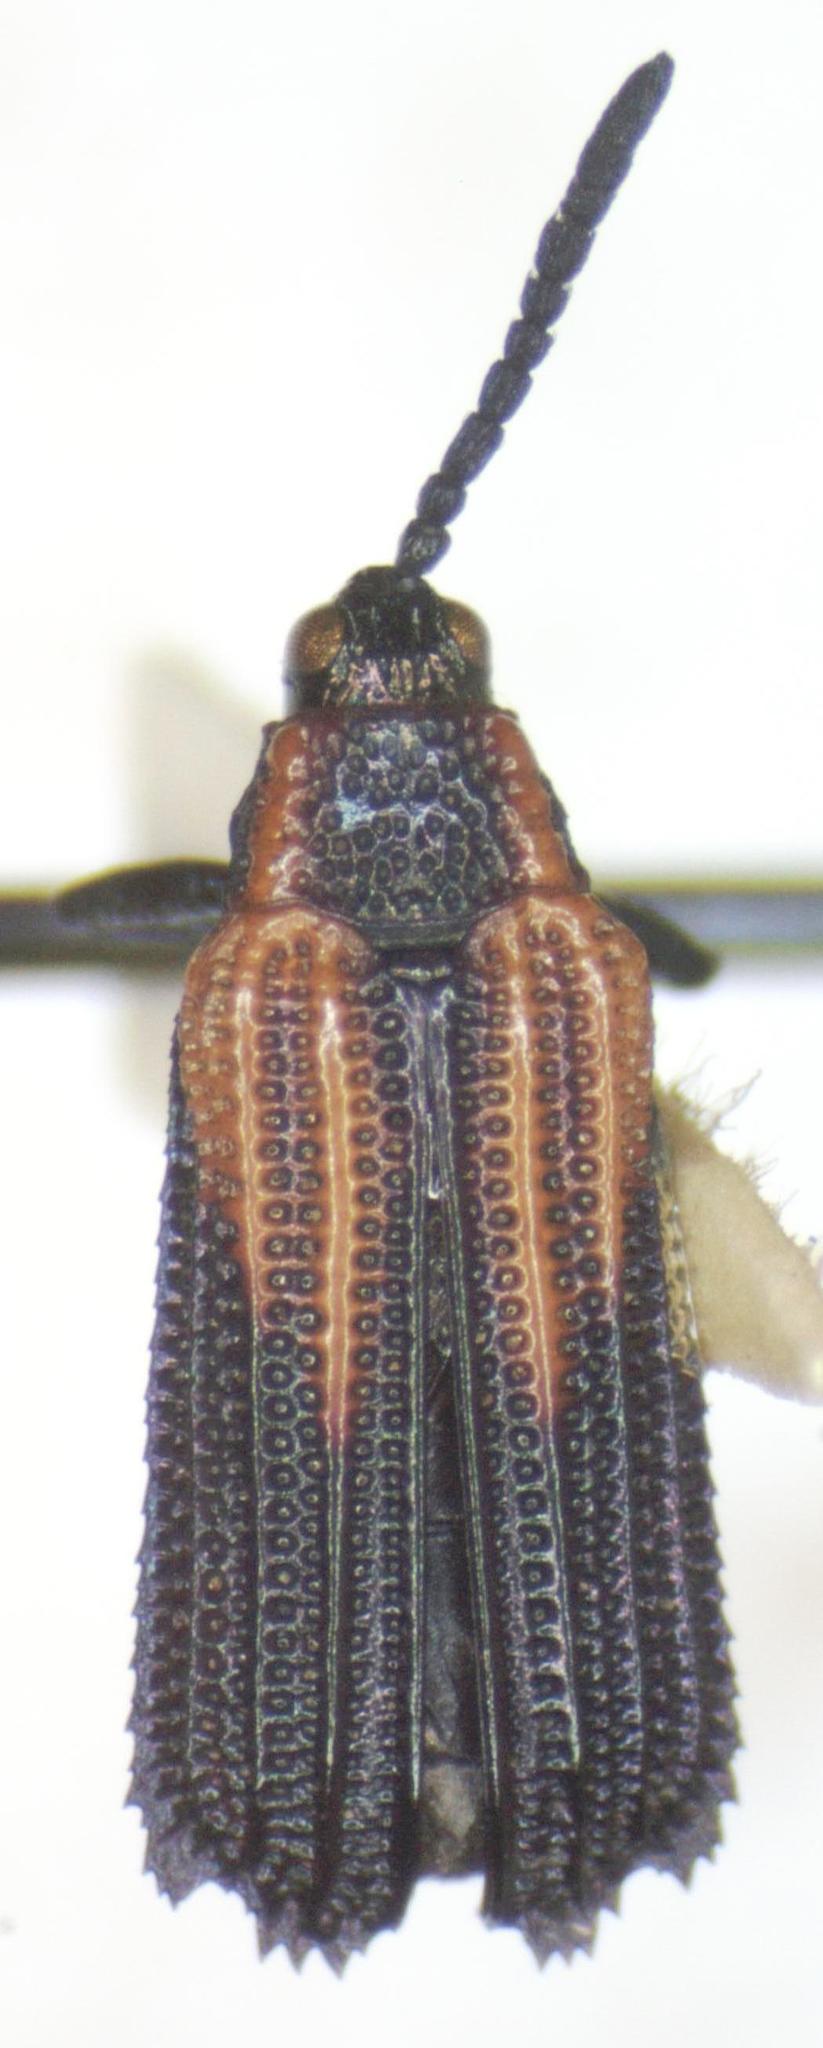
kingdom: Animalia
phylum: Arthropoda
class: Insecta
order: Coleoptera
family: Chrysomelidae
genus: Pentispa
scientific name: Pentispa clarkella
